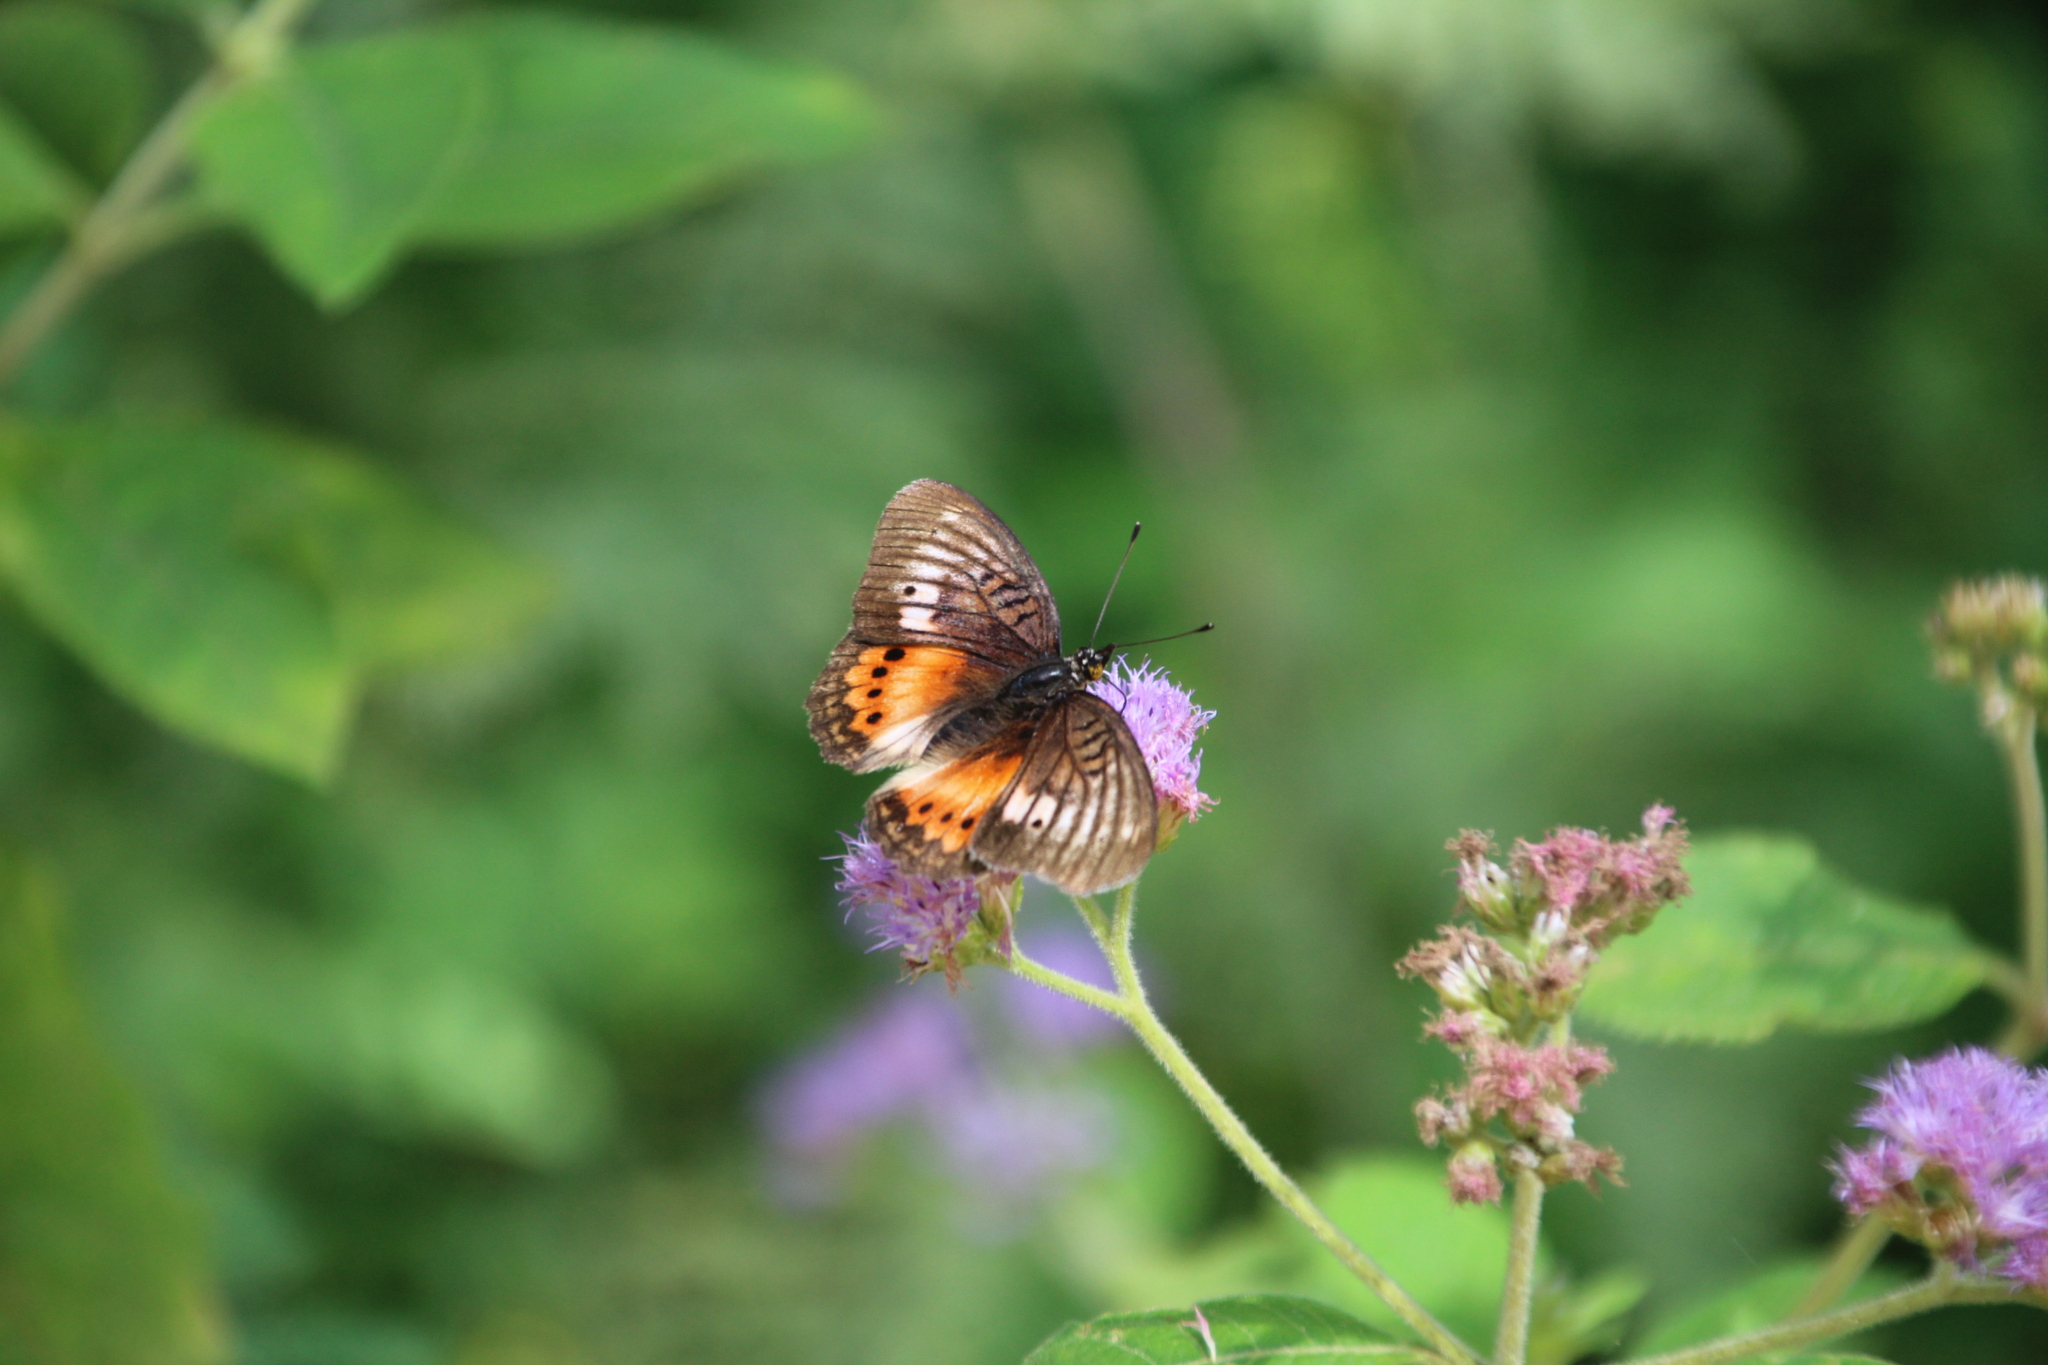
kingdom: Animalia
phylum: Arthropoda
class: Insecta
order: Lepidoptera
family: Nymphalidae
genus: Junonia
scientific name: Junonia westermanni
